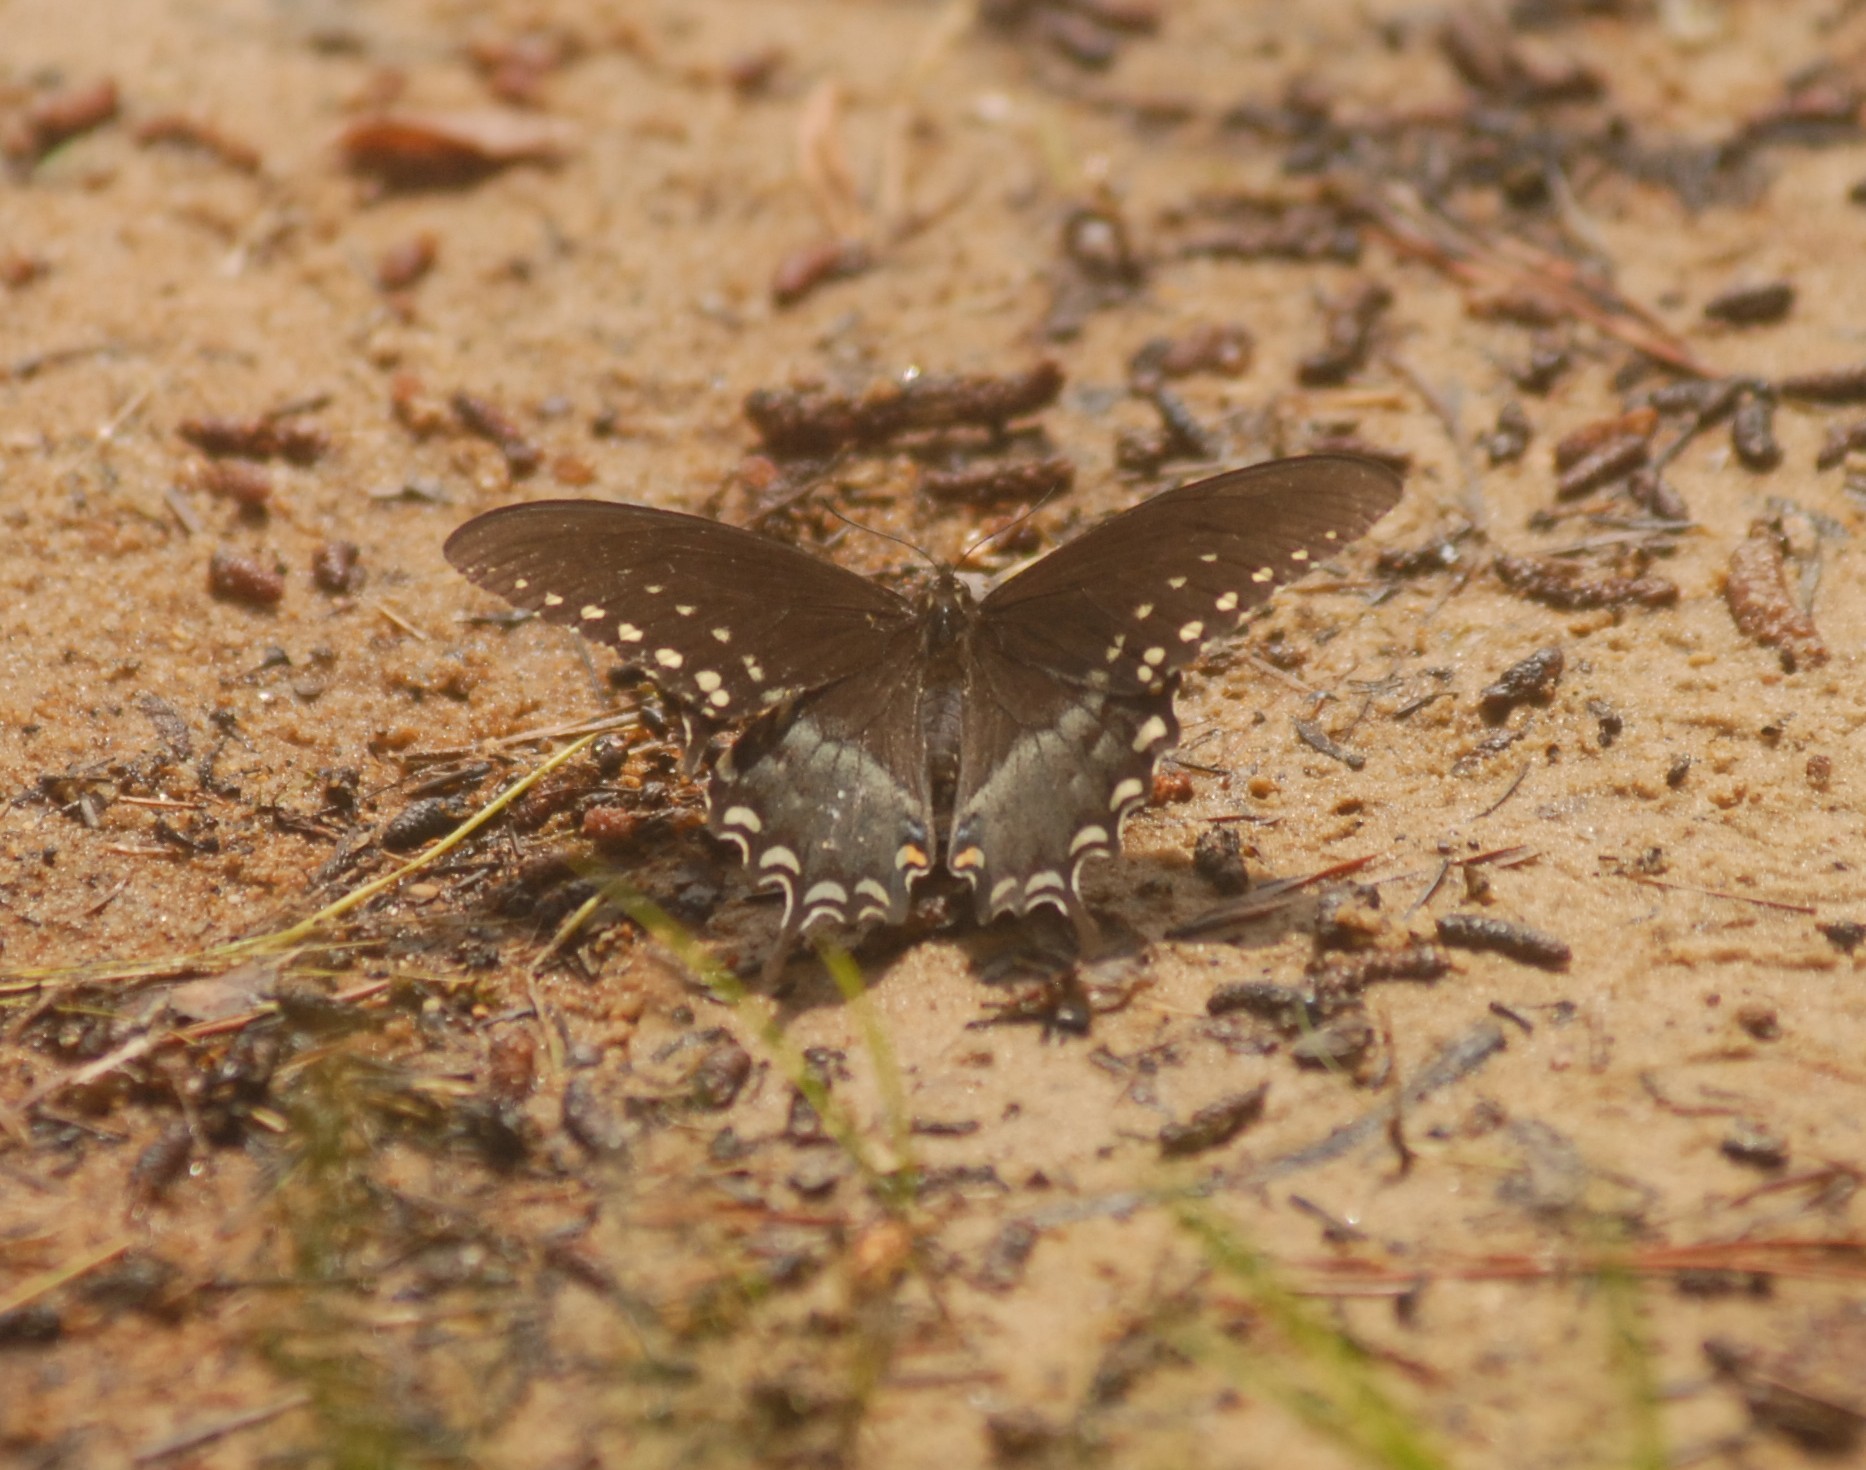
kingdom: Animalia
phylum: Arthropoda
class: Insecta
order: Lepidoptera
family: Papilionidae
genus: Papilio
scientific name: Papilio troilus
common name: Spicebush swallowtail
